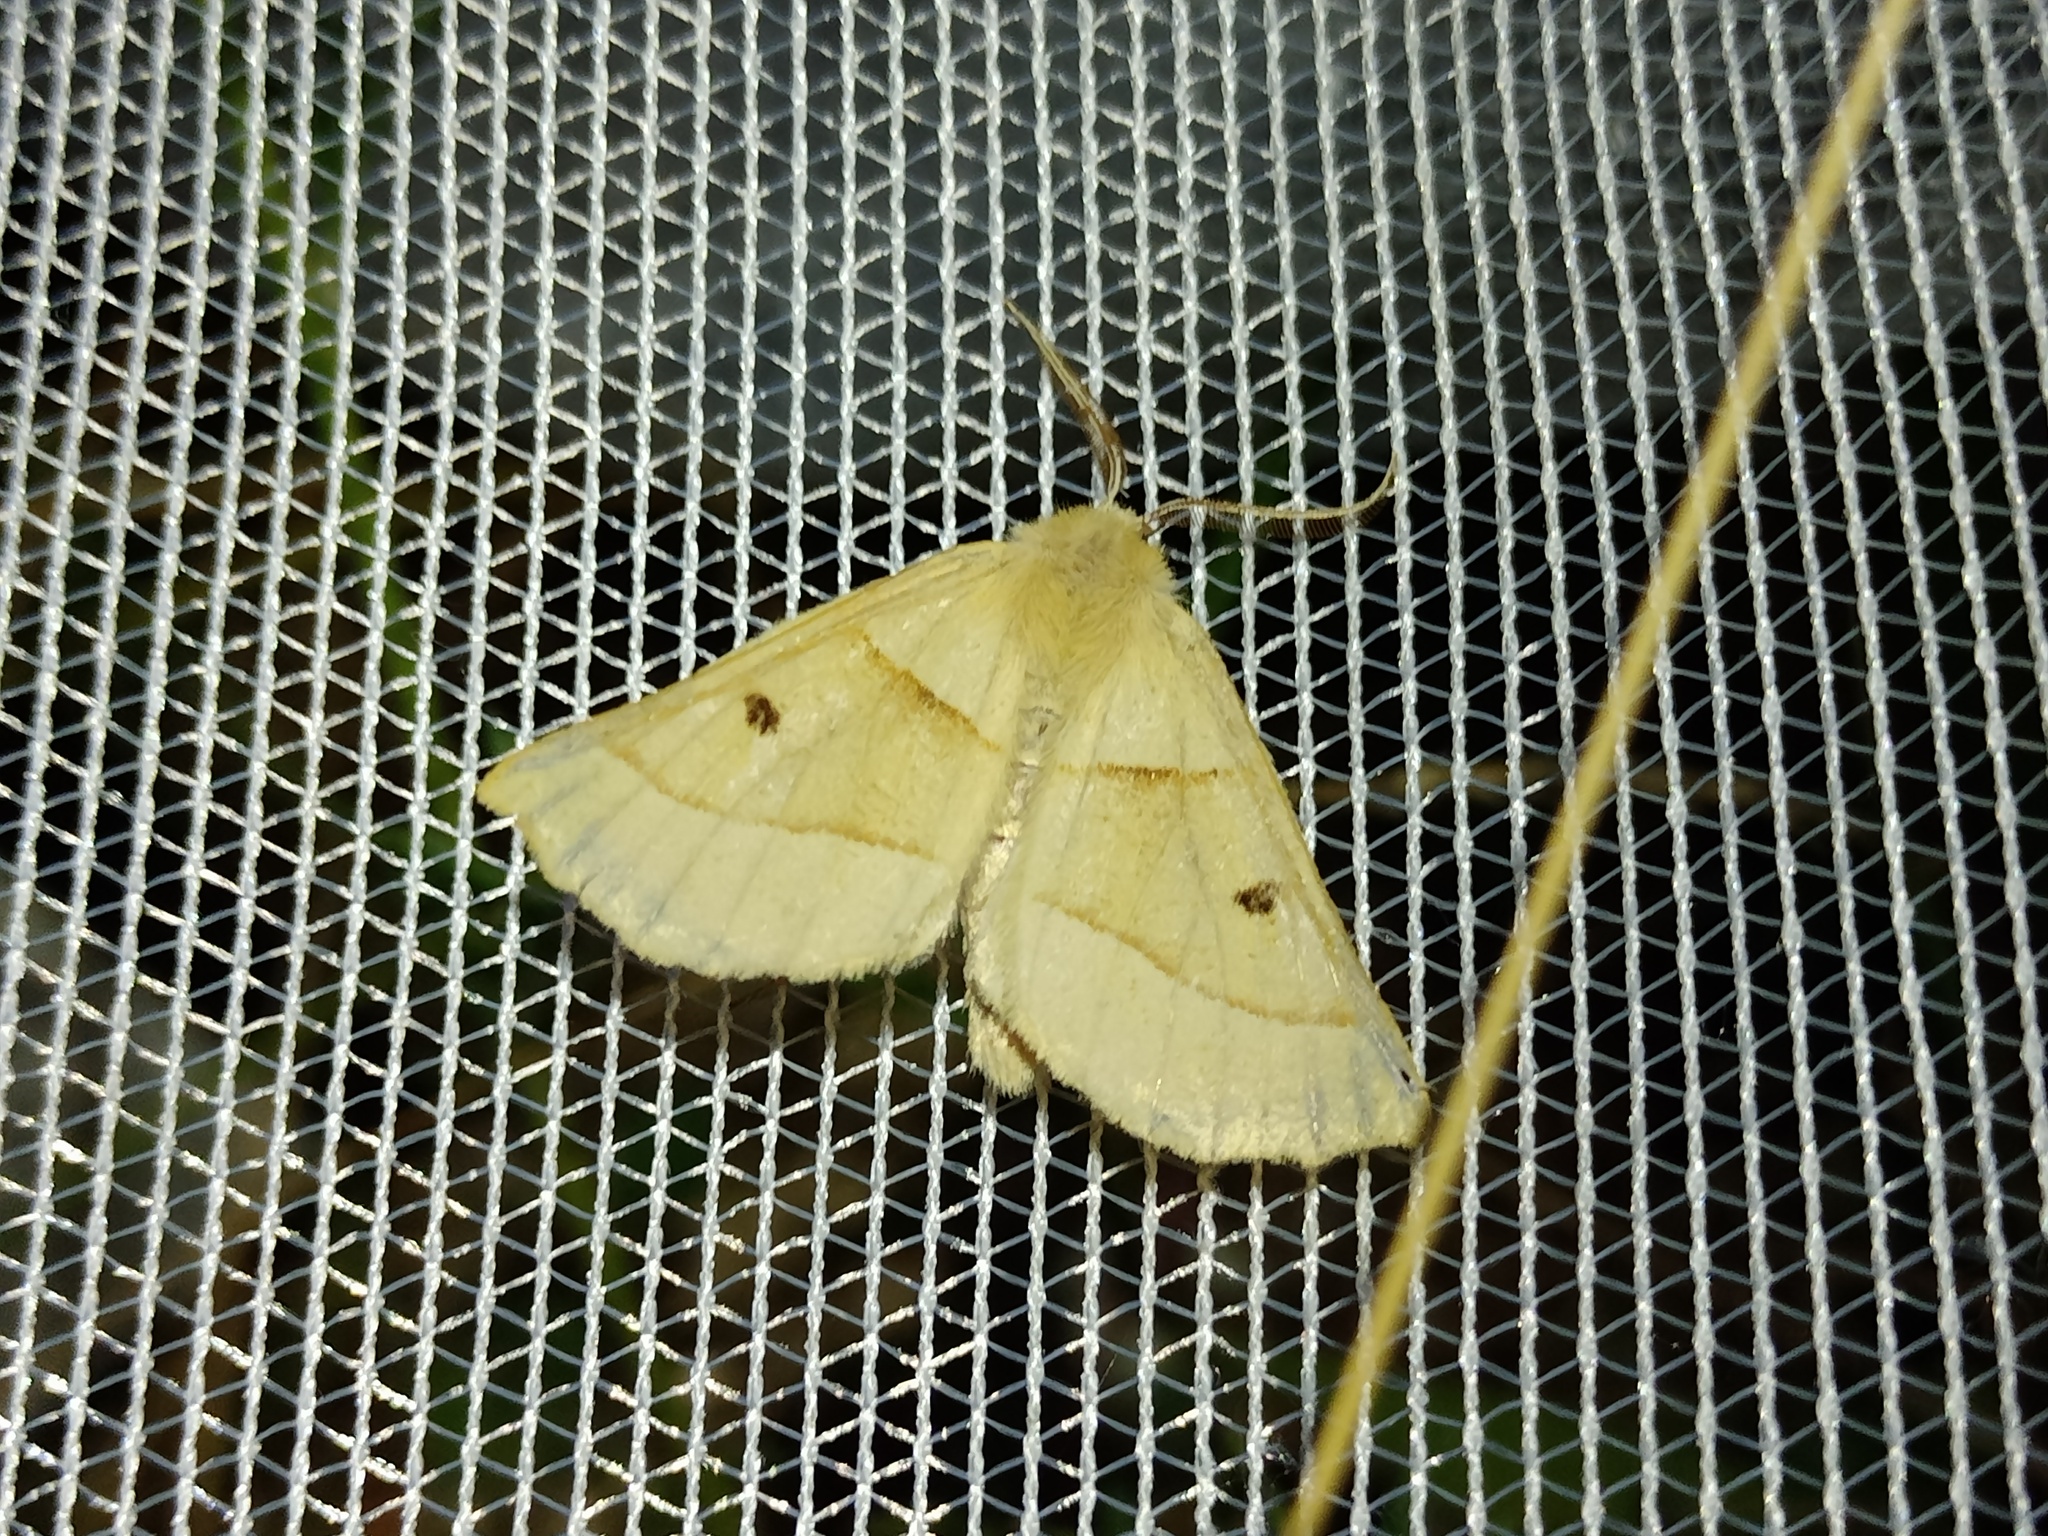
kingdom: Animalia
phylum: Arthropoda
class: Insecta
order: Lepidoptera
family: Geometridae
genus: Crocallis
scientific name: Crocallis elinguaria
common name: Scalloped oak
